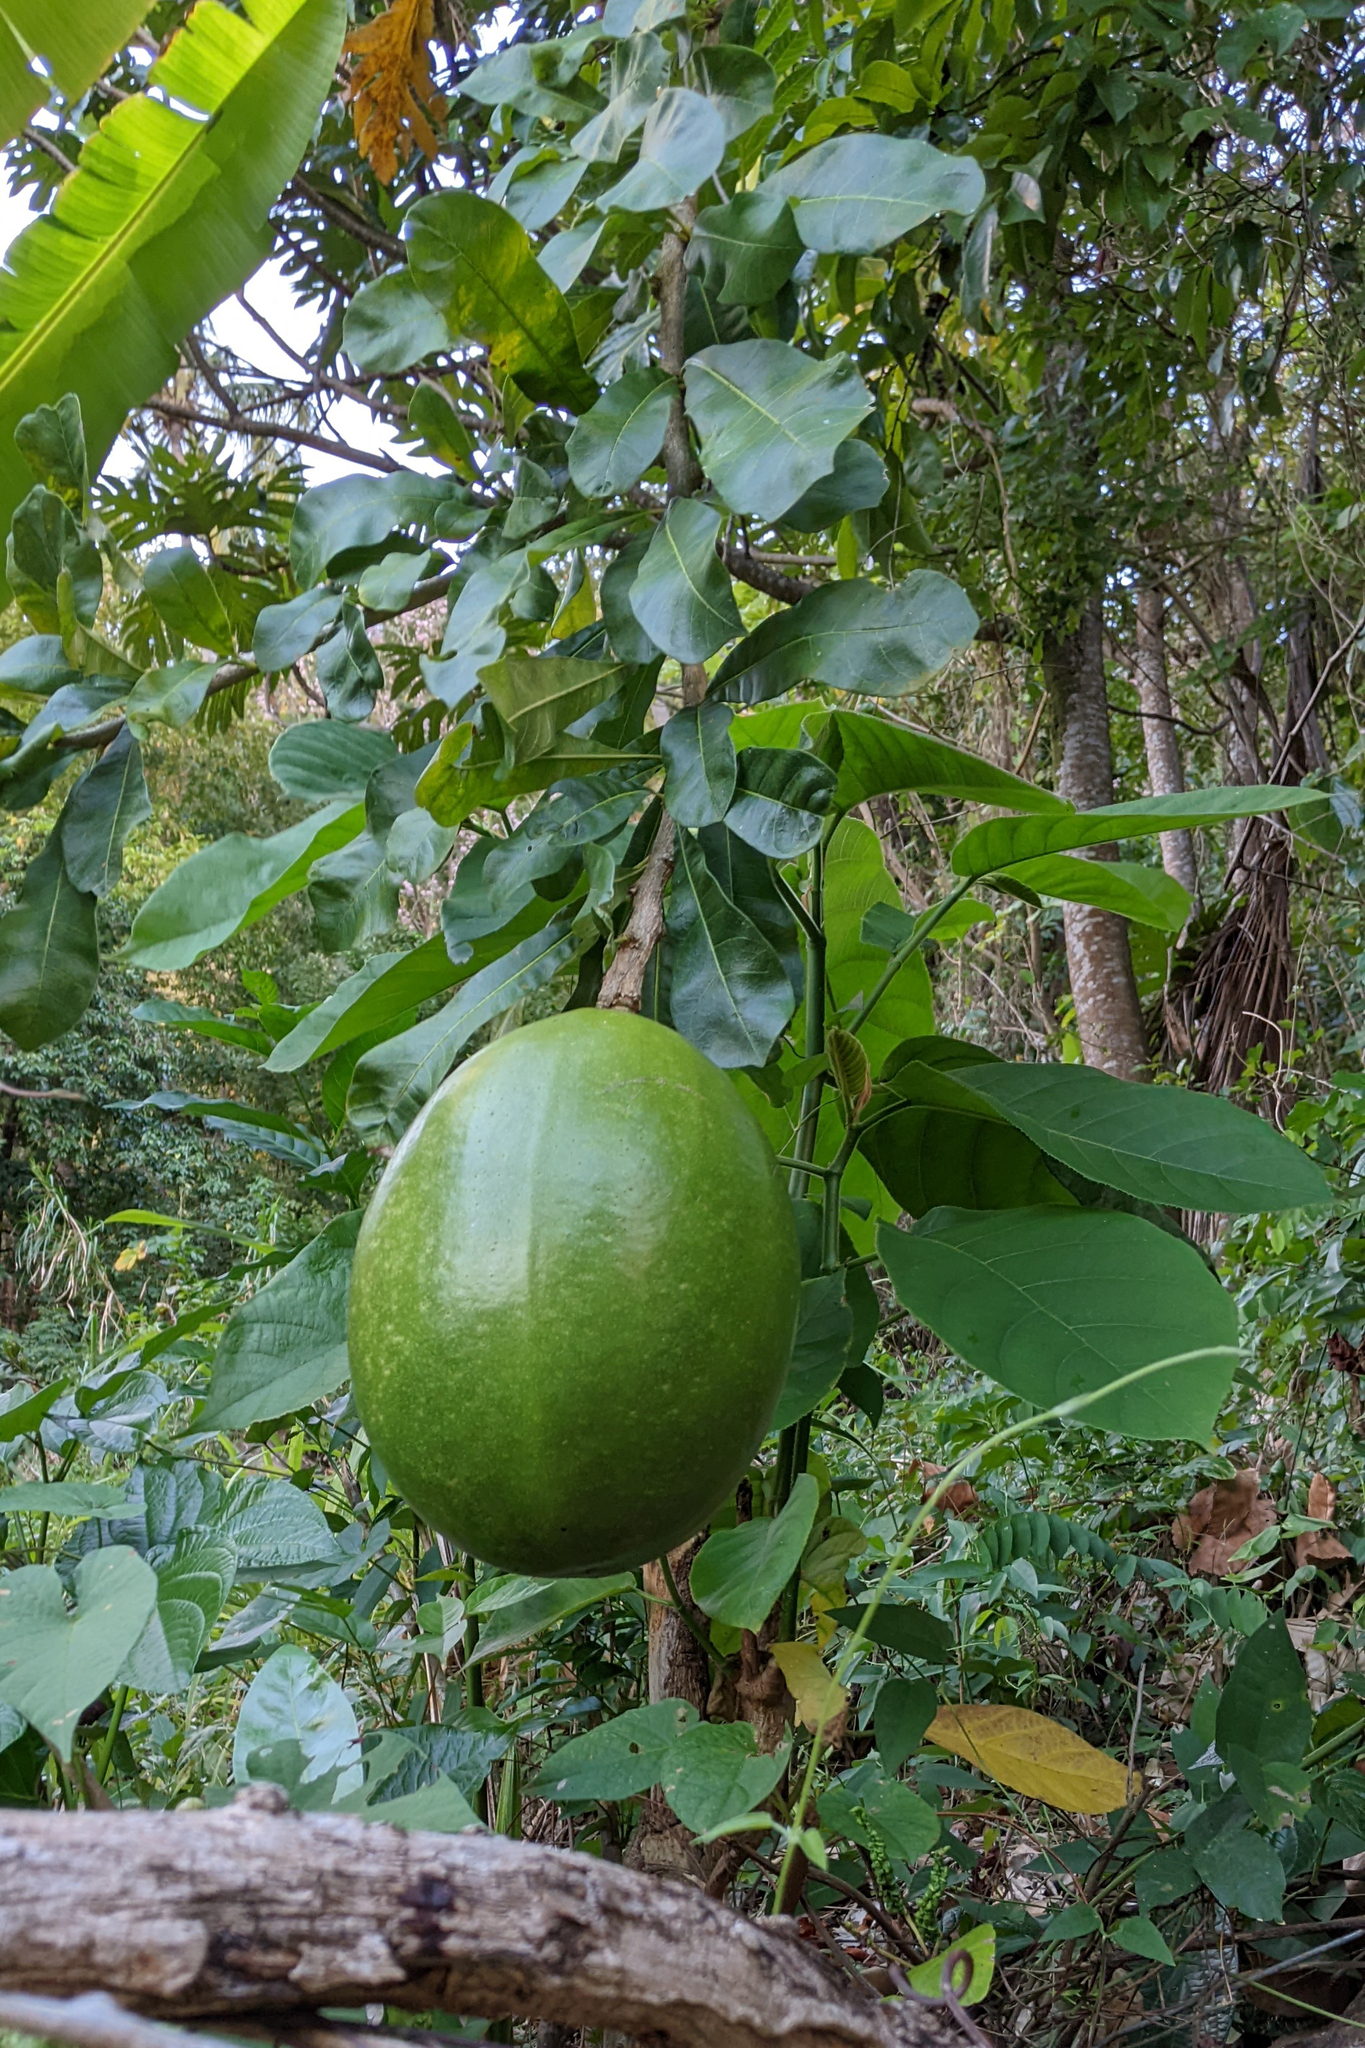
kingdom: Plantae
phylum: Tracheophyta
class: Magnoliopsida
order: Lamiales
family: Bignoniaceae
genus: Crescentia
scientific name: Crescentia cujete
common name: Calabash
